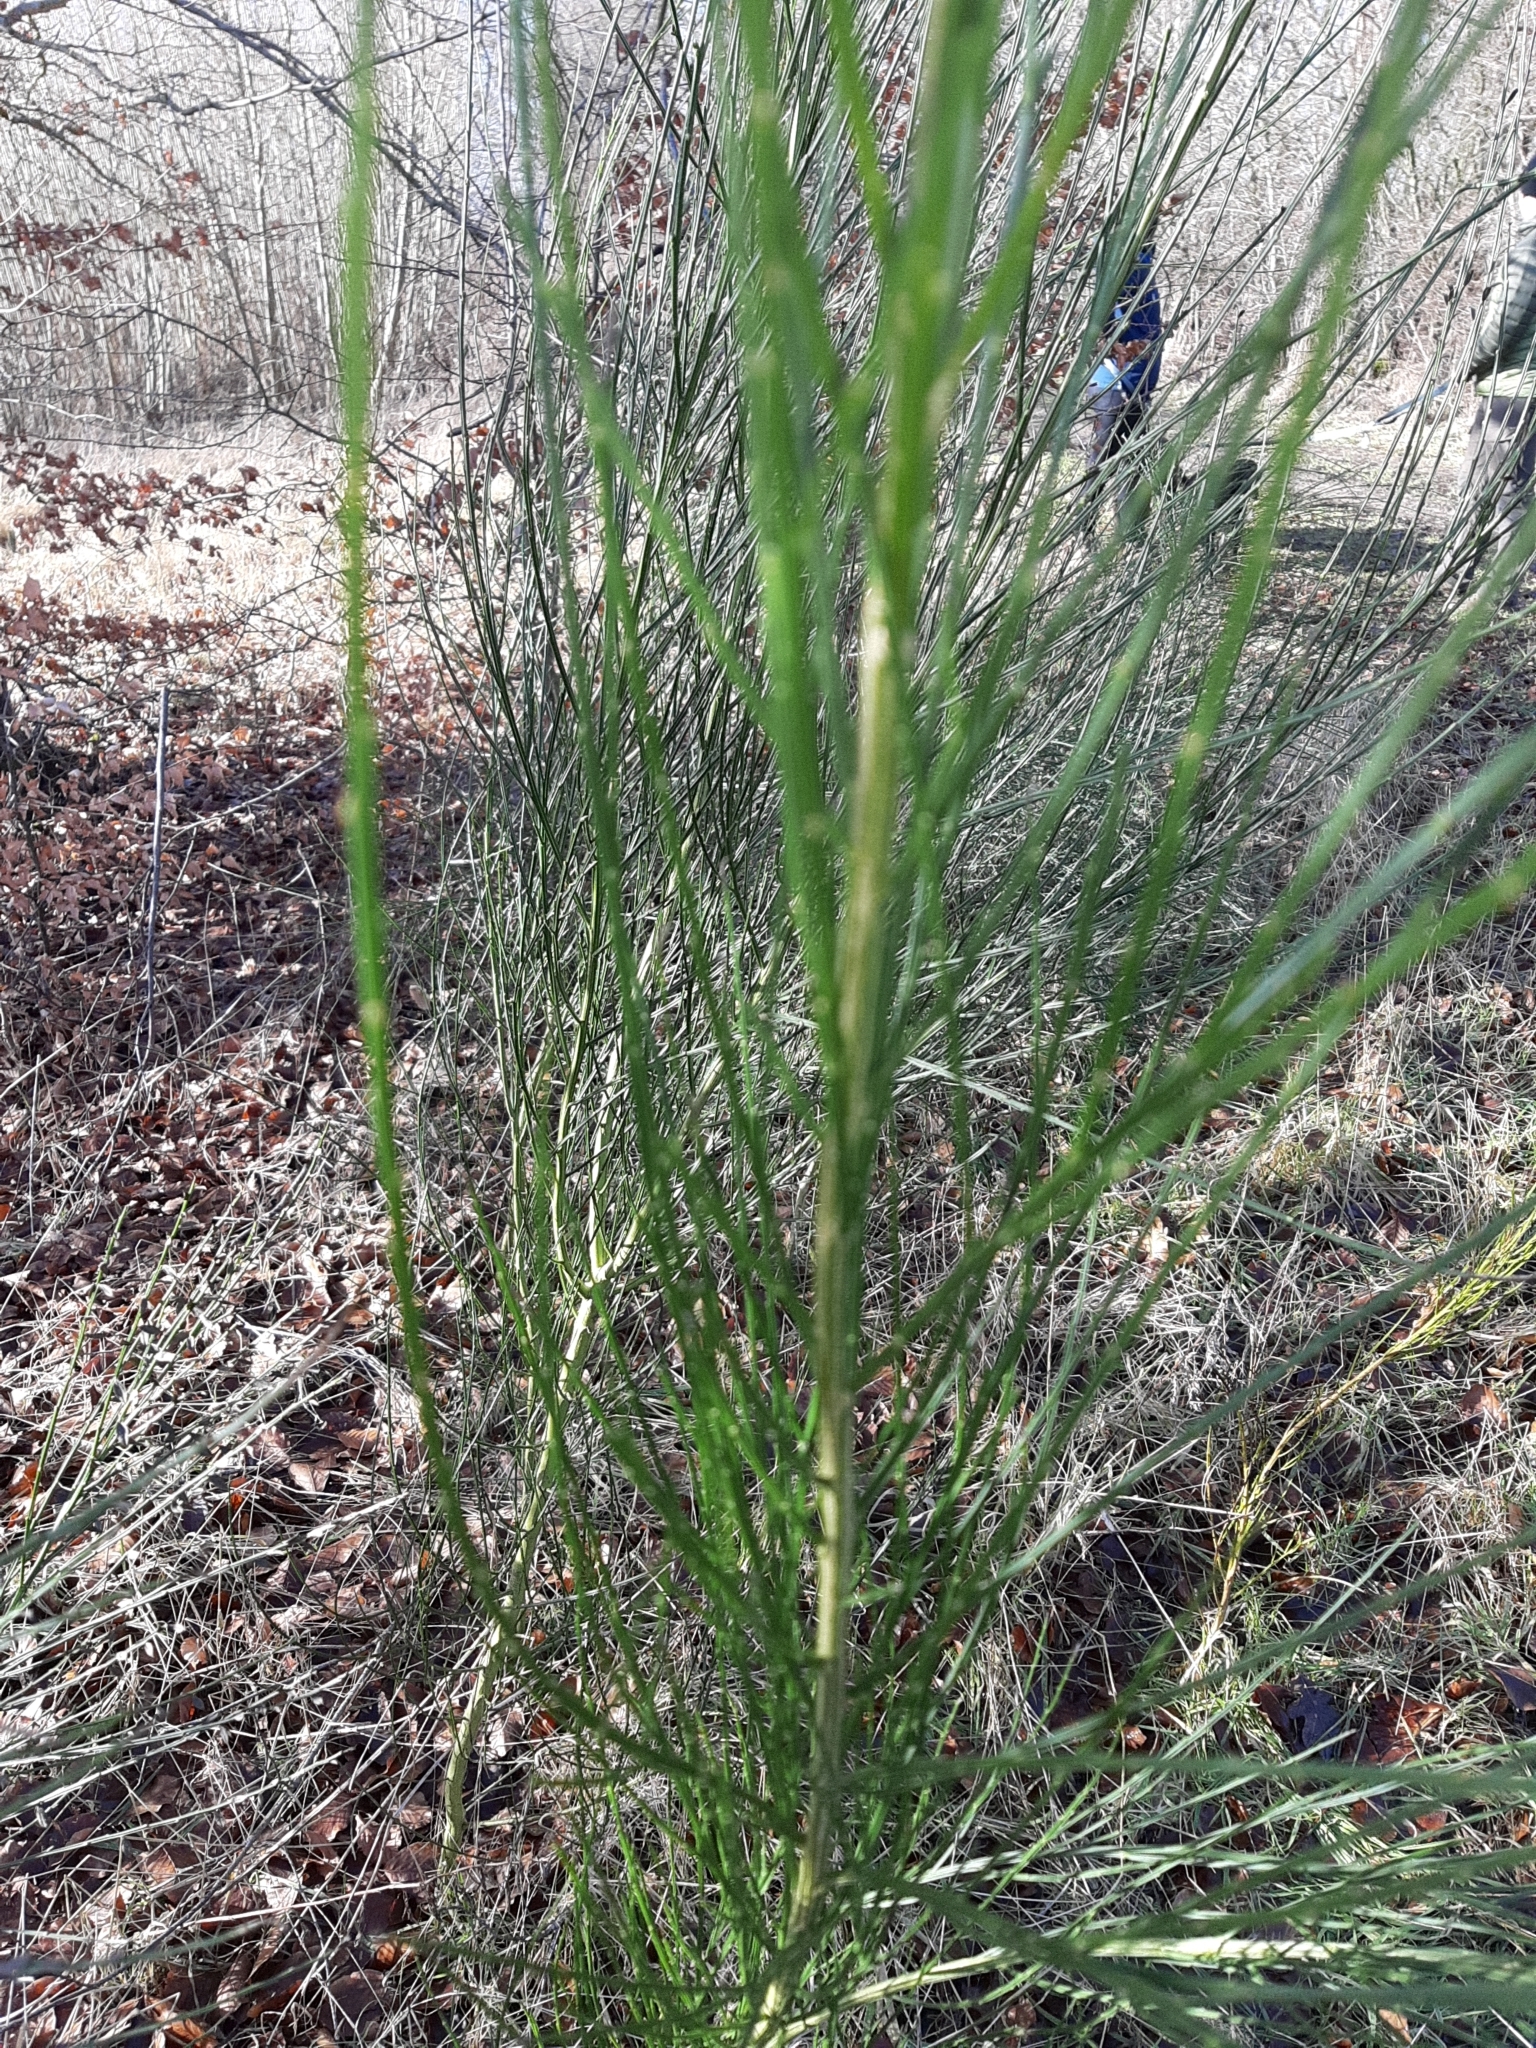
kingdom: Plantae
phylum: Tracheophyta
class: Magnoliopsida
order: Fabales
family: Fabaceae
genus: Cytisus
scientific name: Cytisus scoparius
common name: Scotch broom
